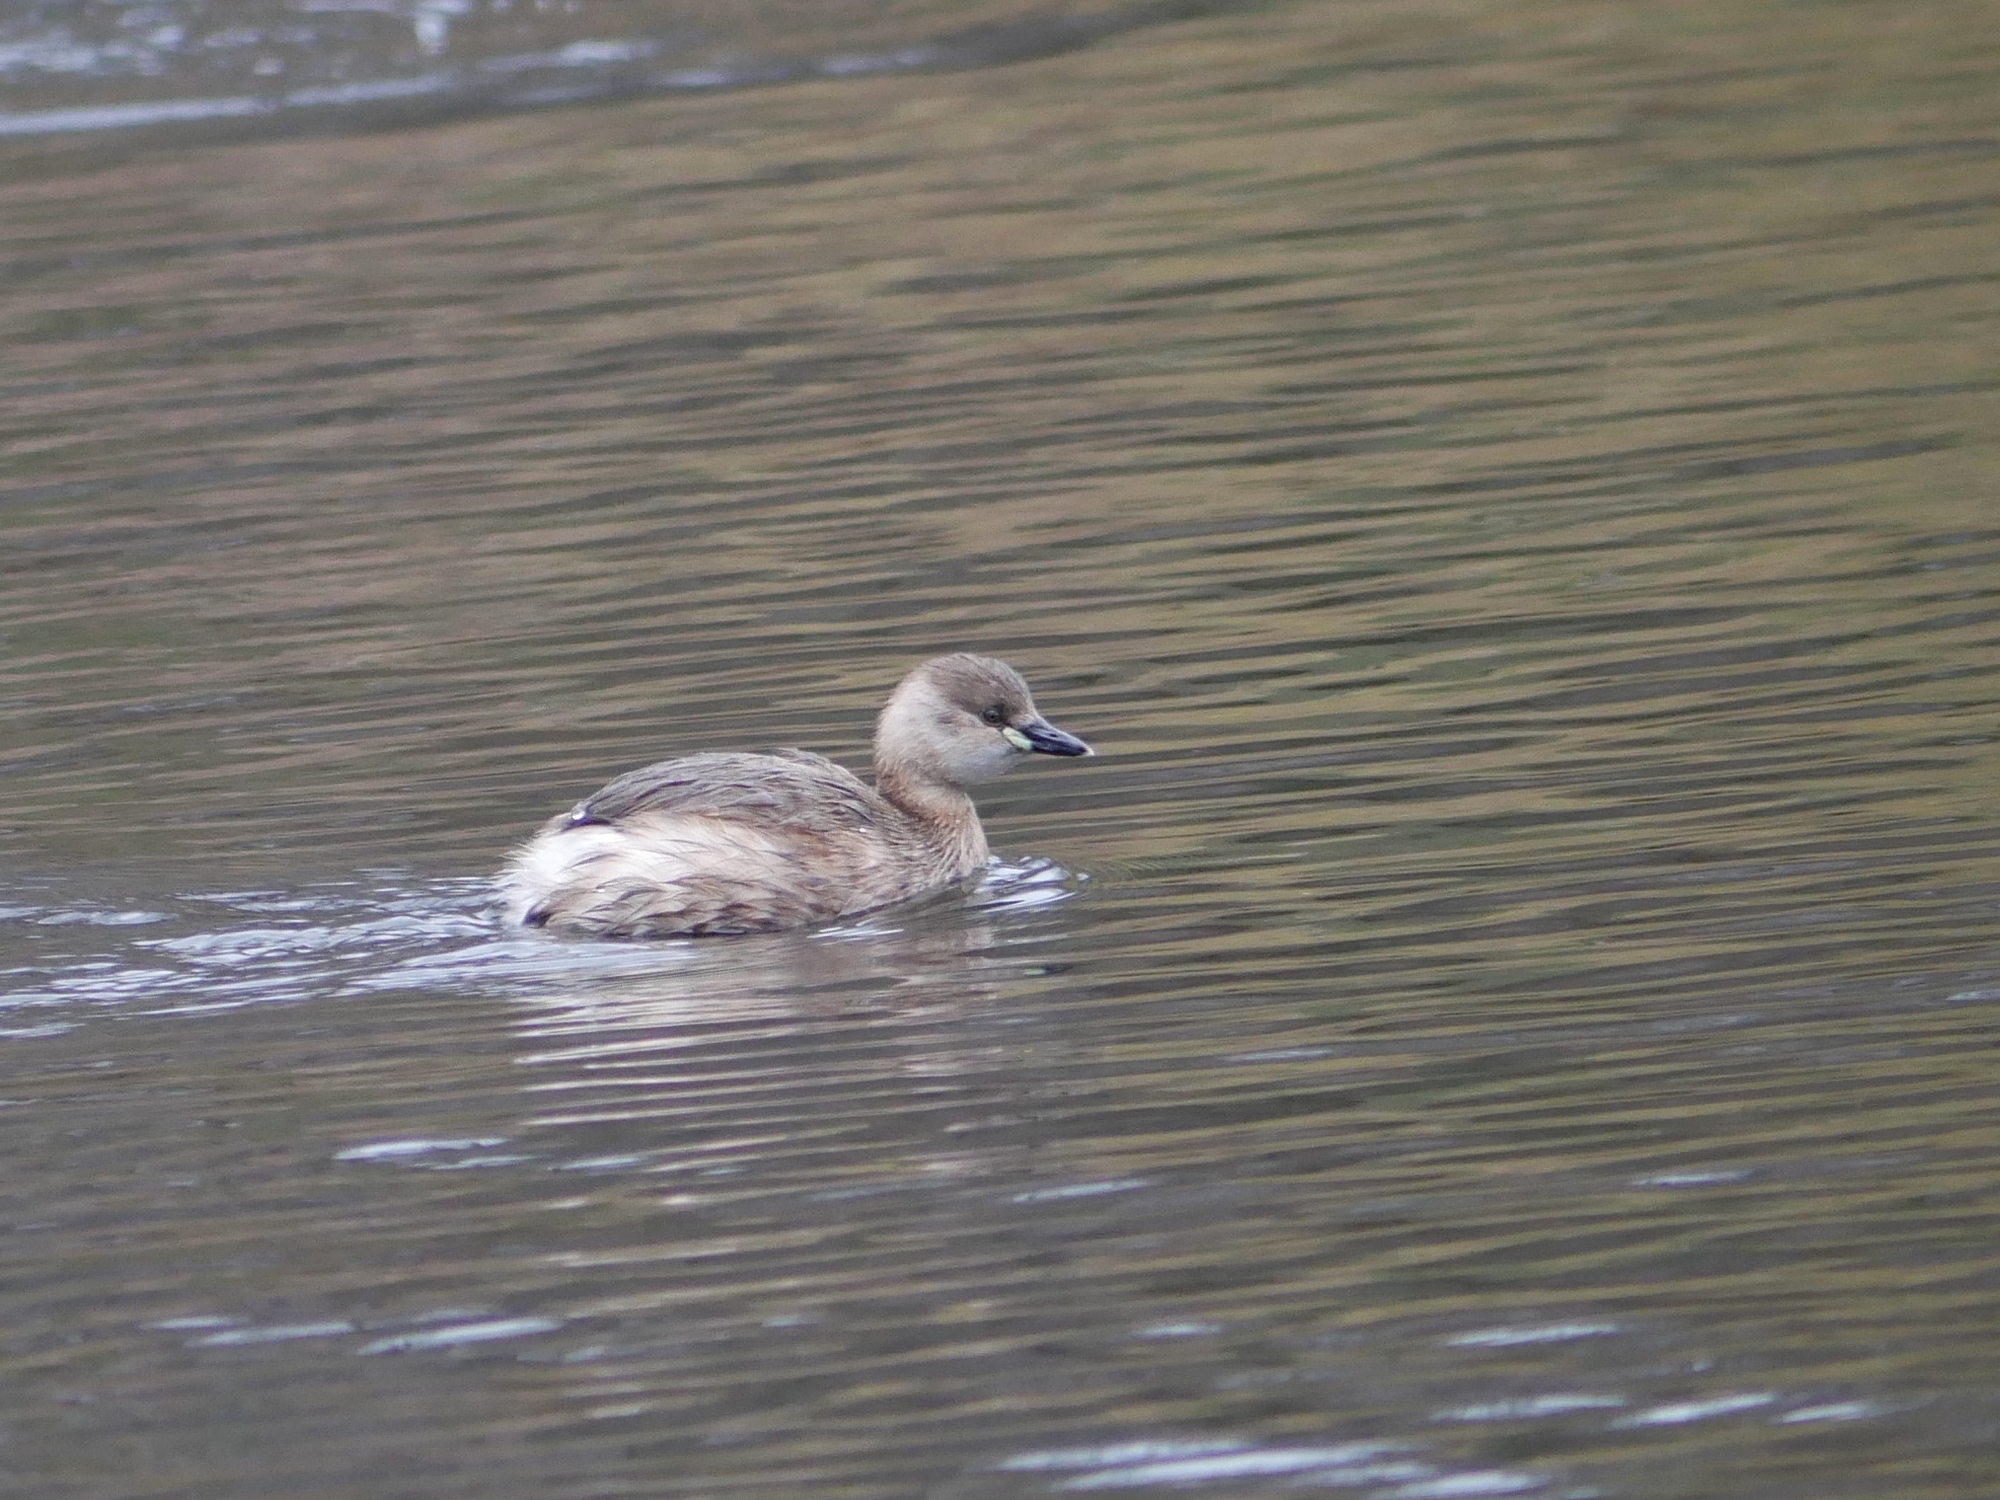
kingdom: Animalia
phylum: Chordata
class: Aves
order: Podicipediformes
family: Podicipedidae
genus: Tachybaptus
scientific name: Tachybaptus ruficollis
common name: Little grebe
